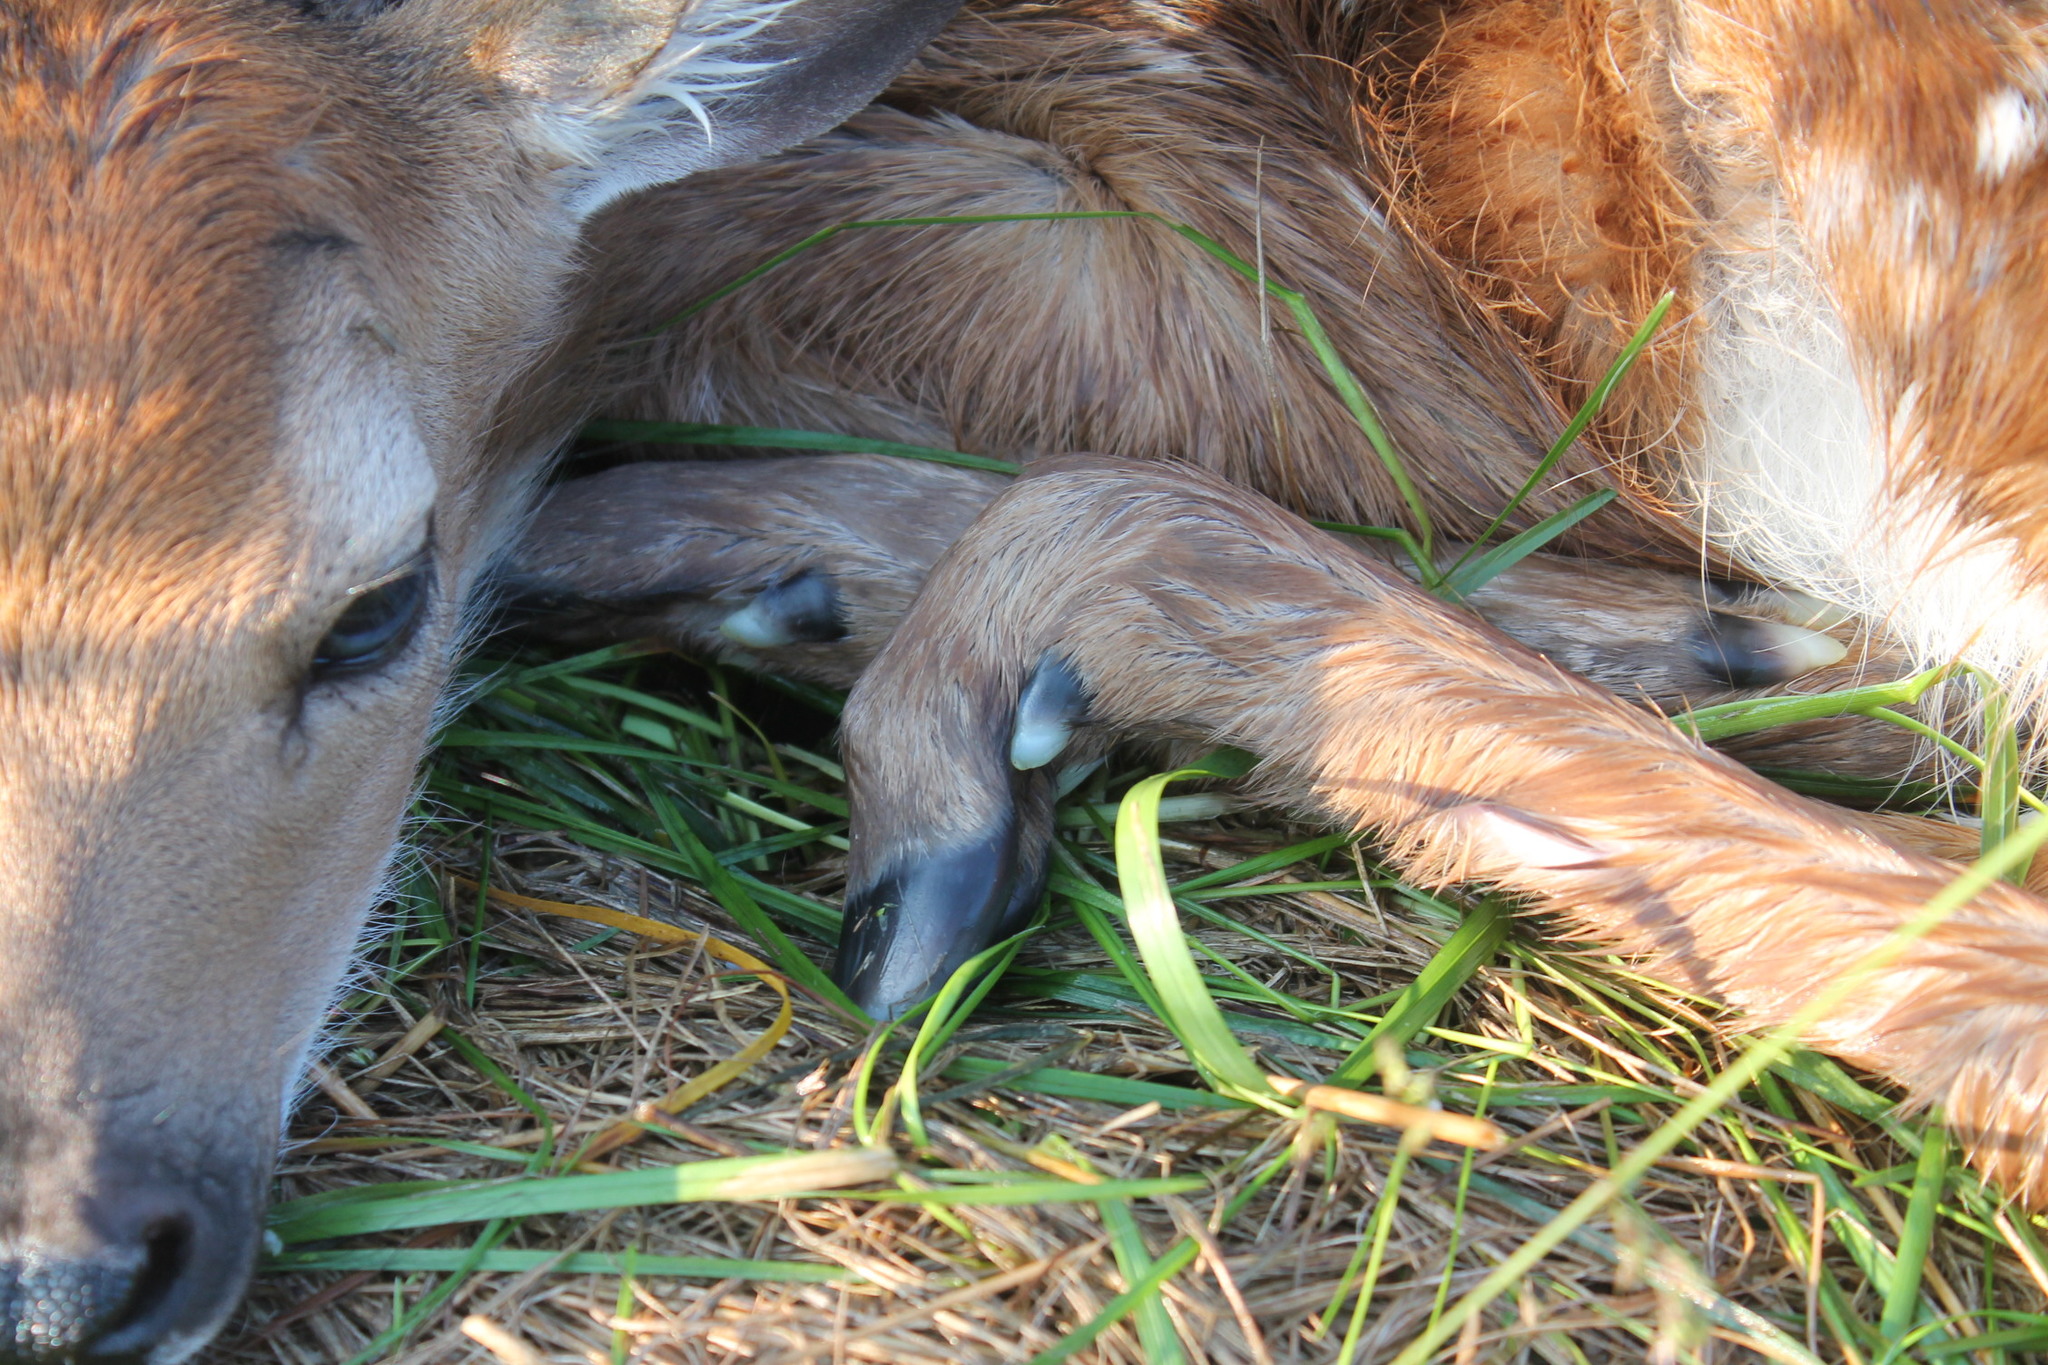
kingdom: Animalia
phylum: Chordata
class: Mammalia
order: Artiodactyla
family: Cervidae
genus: Odocoileus
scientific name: Odocoileus virginianus
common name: White-tailed deer
